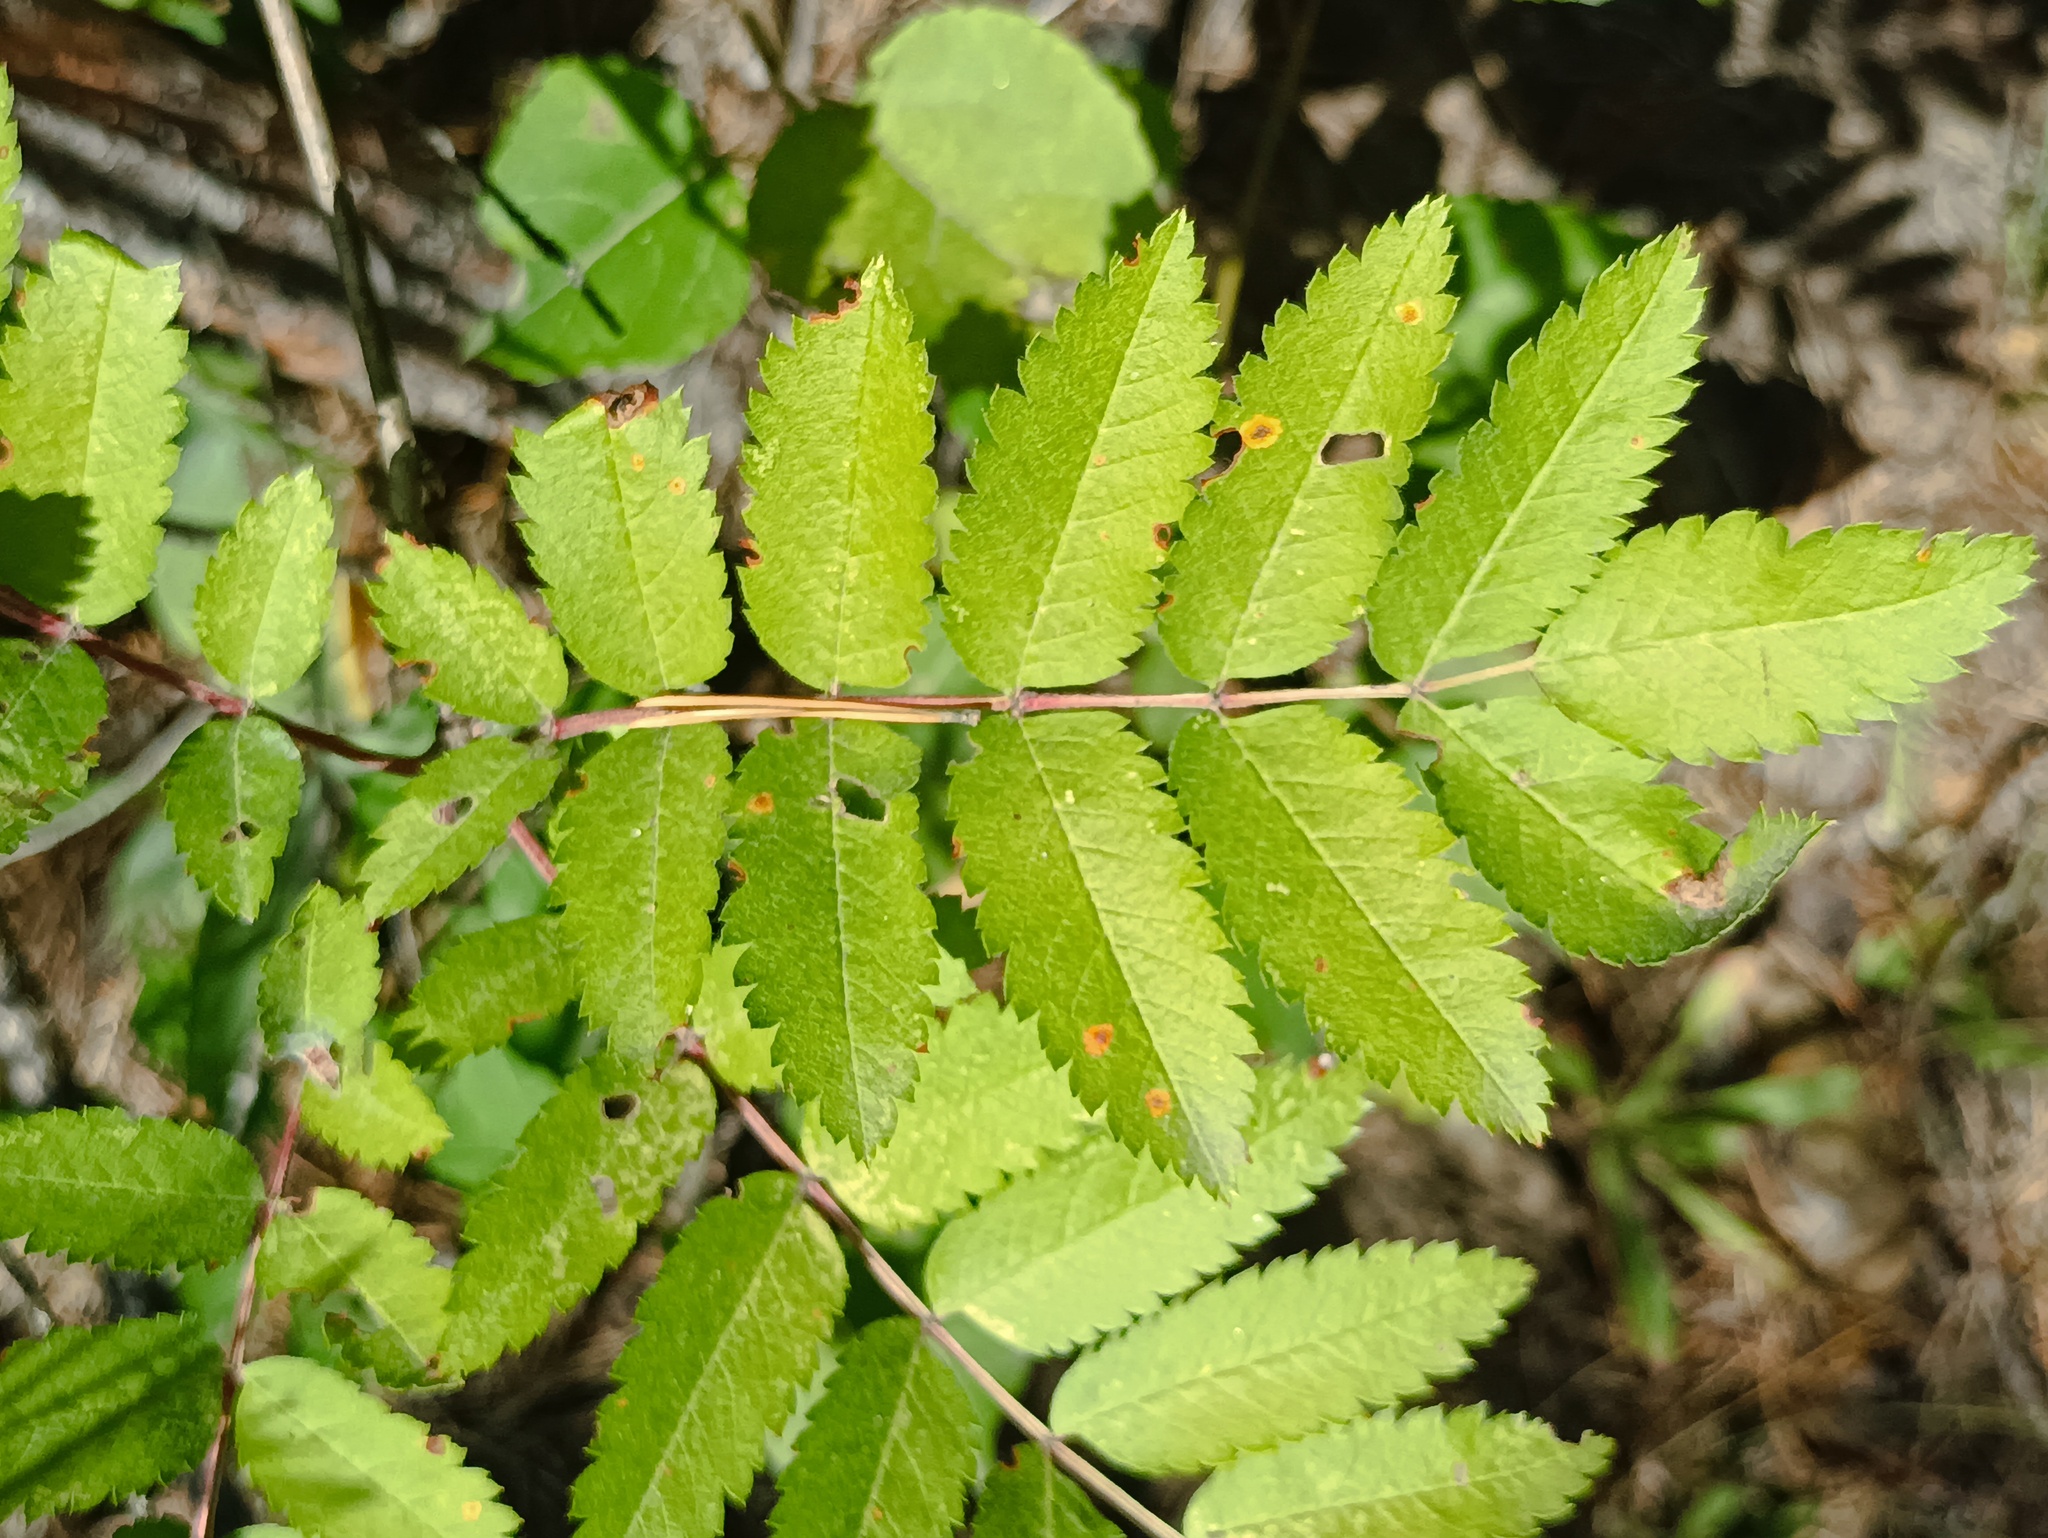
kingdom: Plantae
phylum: Tracheophyta
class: Magnoliopsida
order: Rosales
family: Rosaceae
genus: Sorbus
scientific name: Sorbus aucuparia
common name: Rowan
